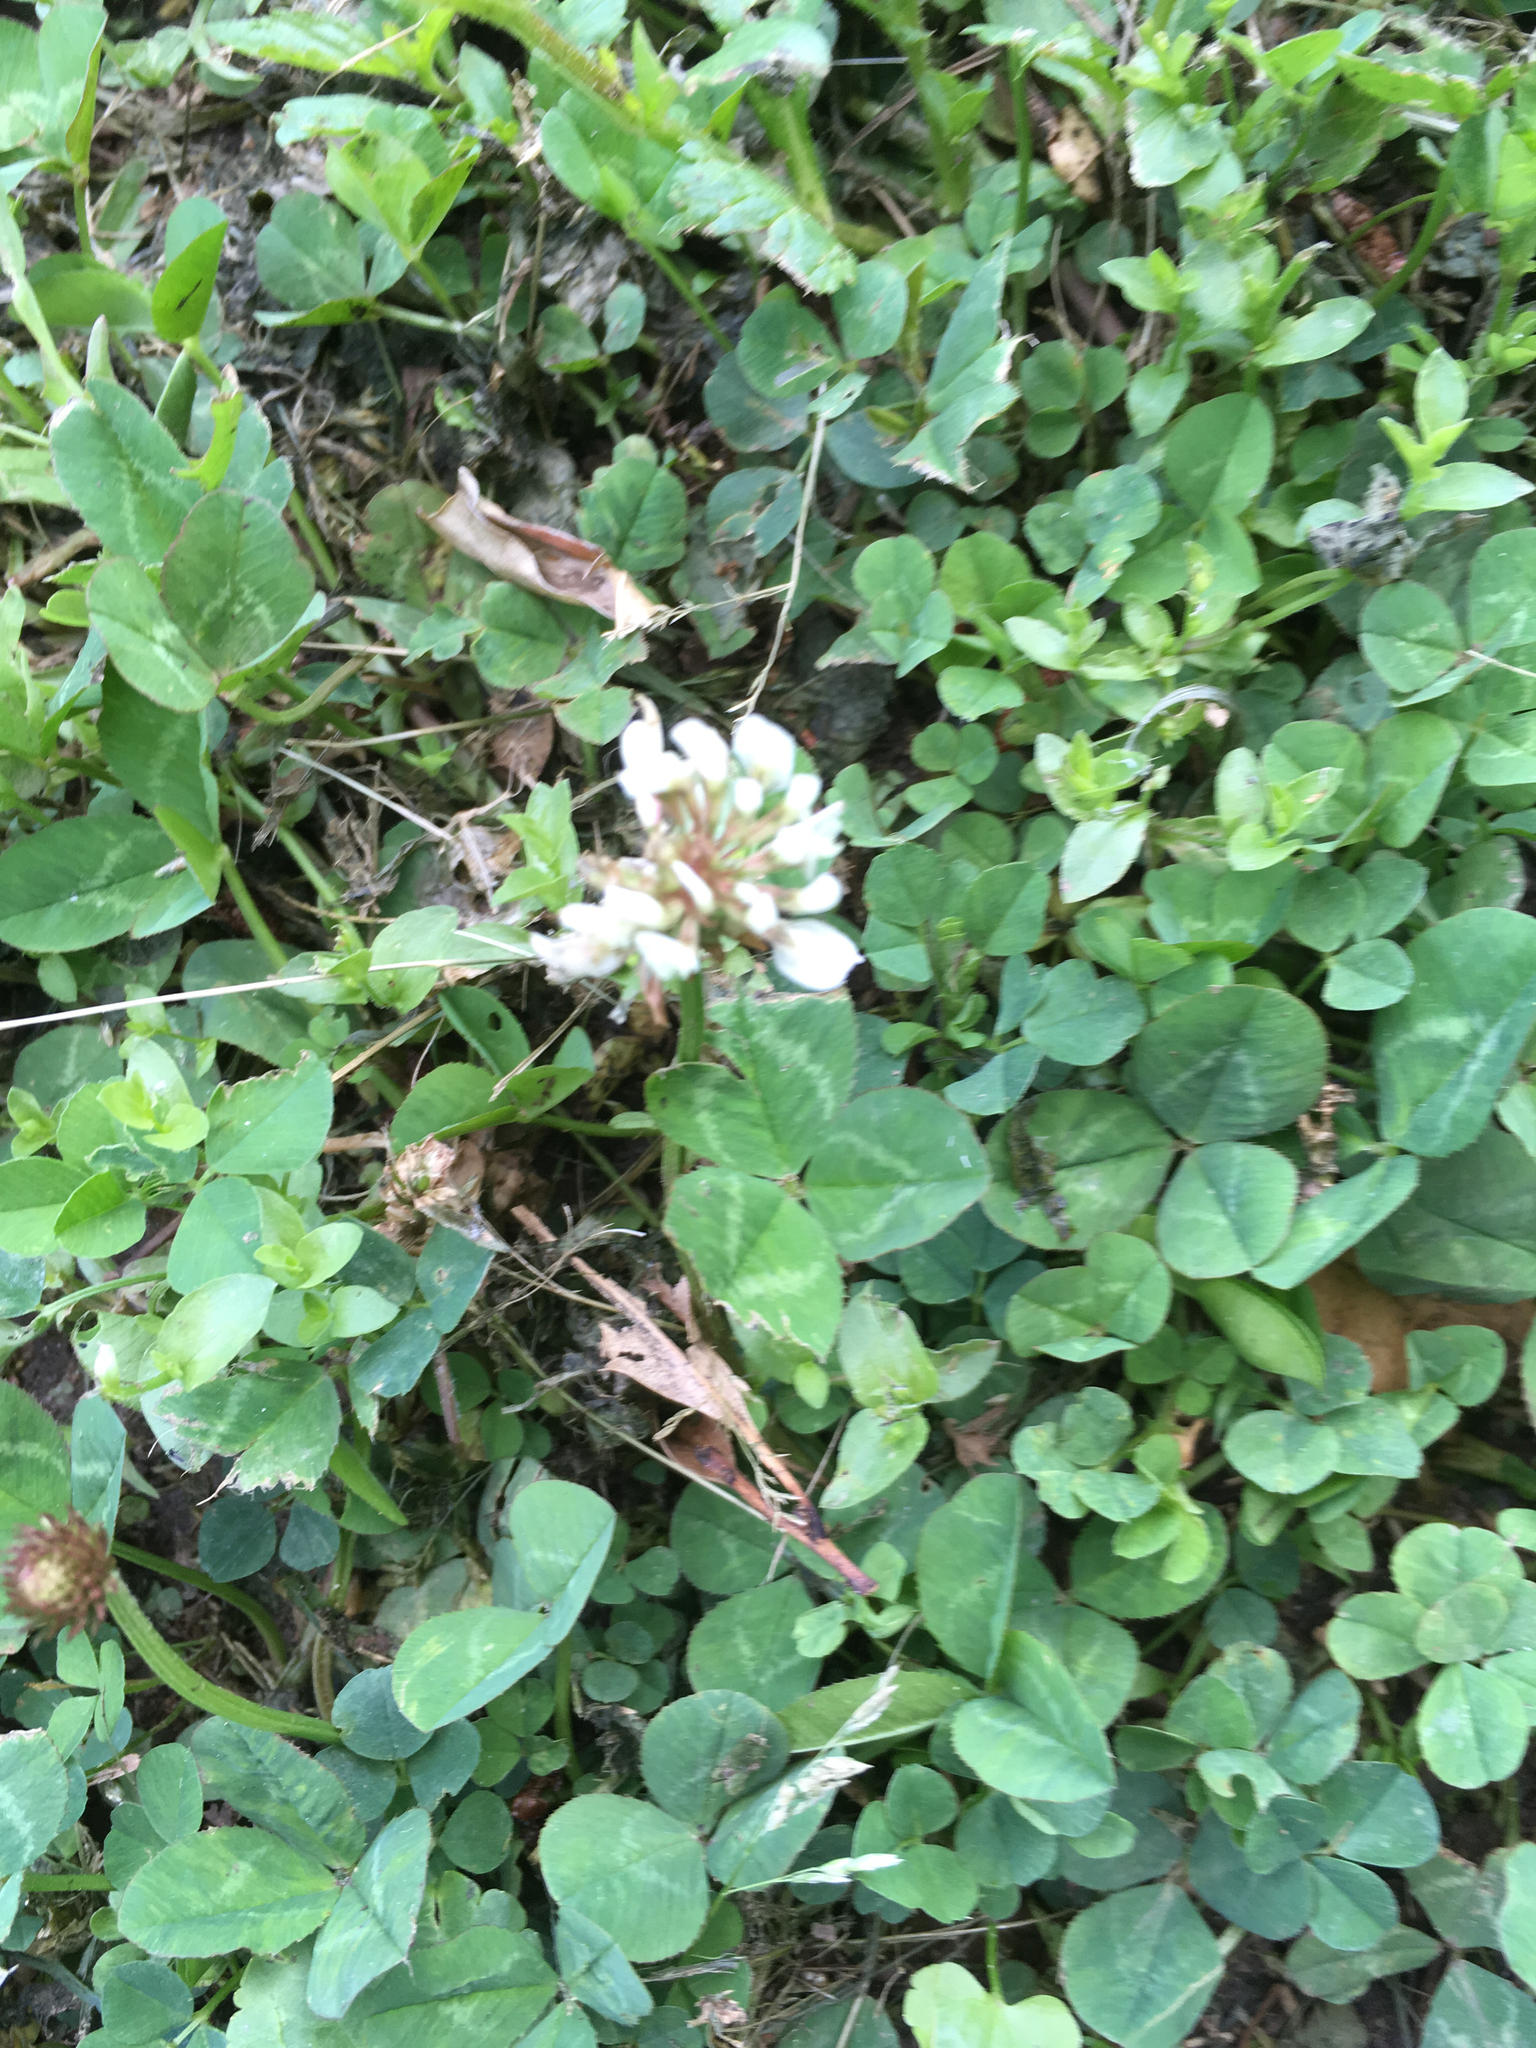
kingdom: Plantae
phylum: Tracheophyta
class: Magnoliopsida
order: Fabales
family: Fabaceae
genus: Trifolium
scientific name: Trifolium repens
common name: White clover
